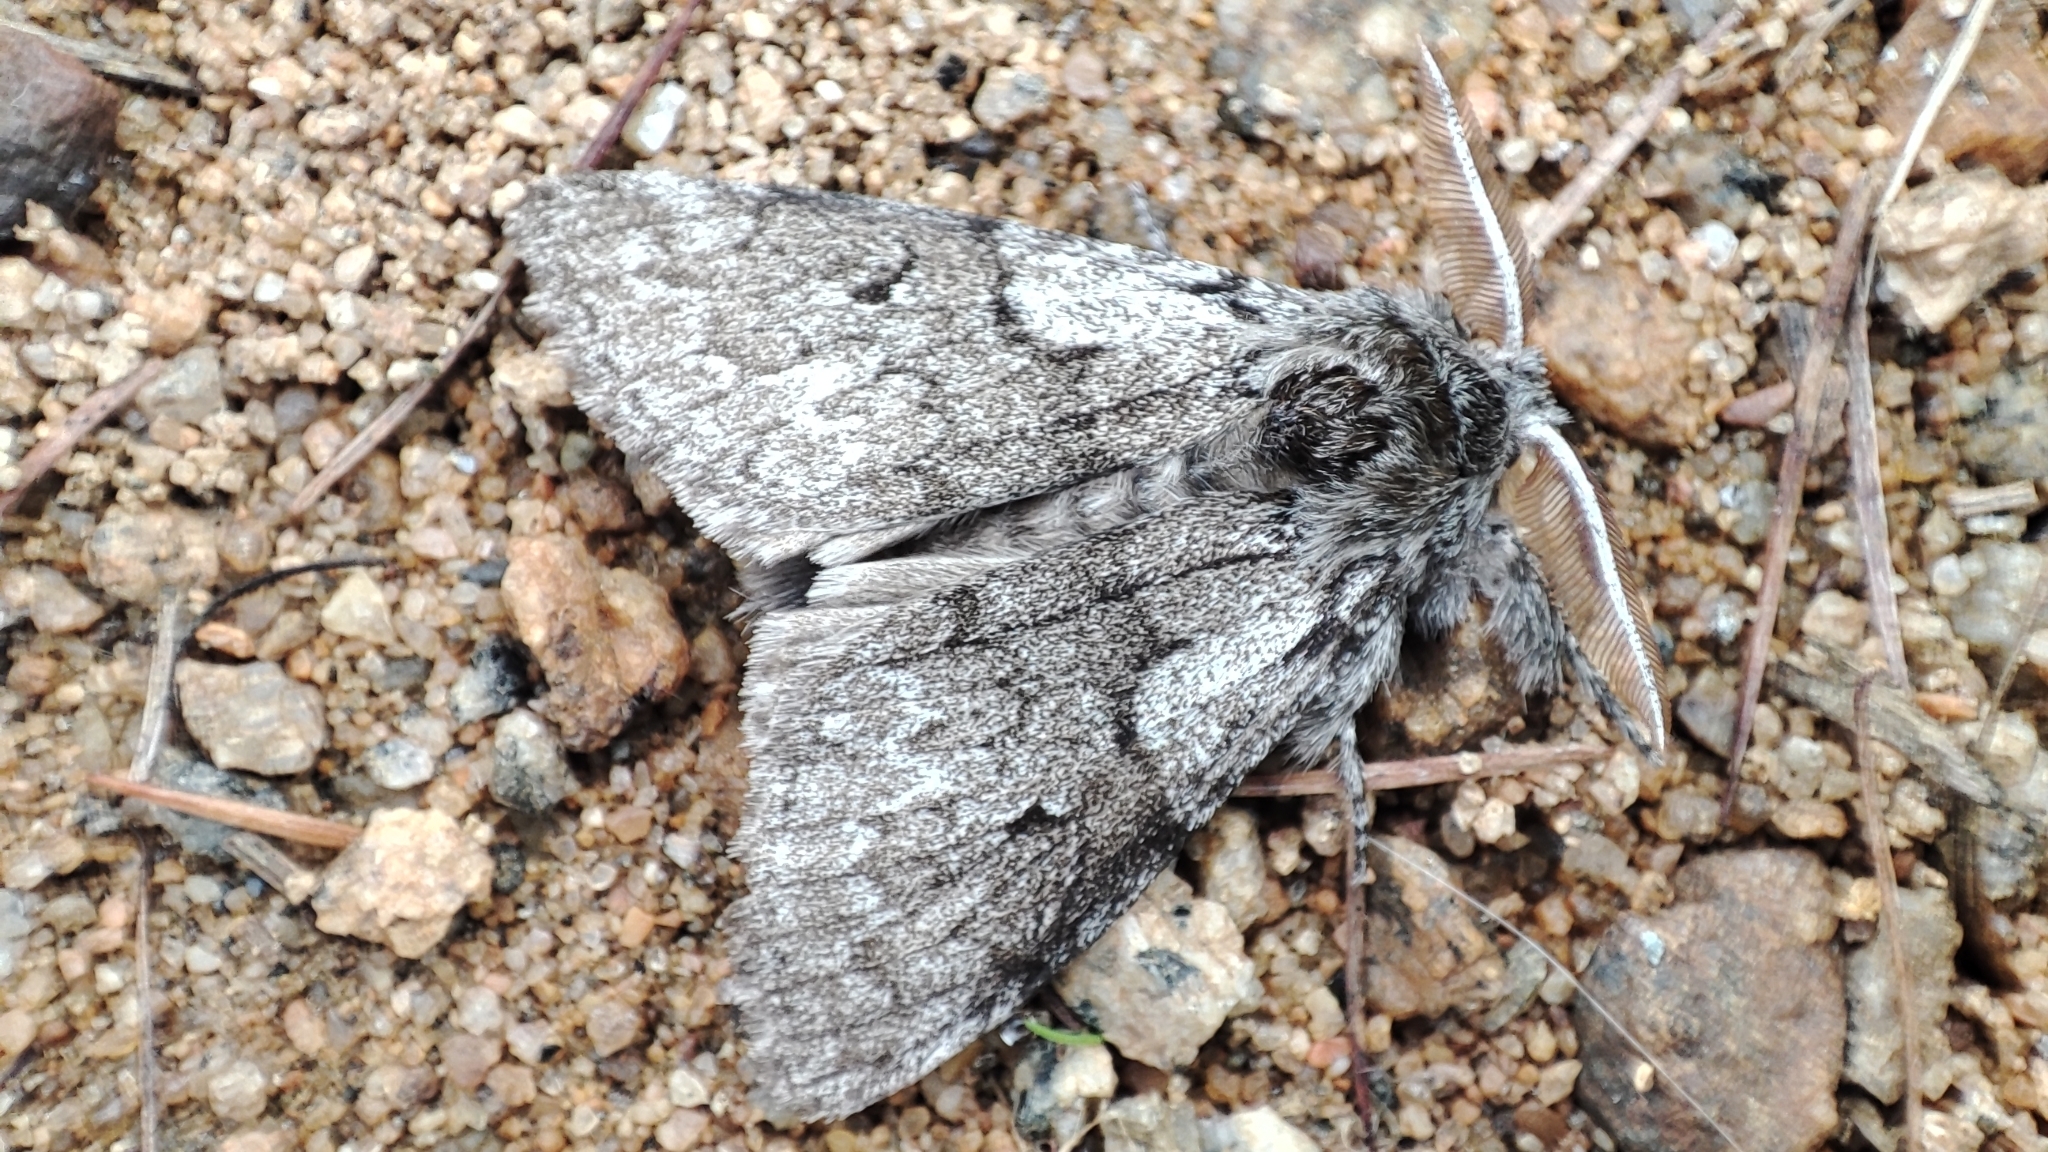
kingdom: Animalia
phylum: Arthropoda
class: Insecta
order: Lepidoptera
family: Erebidae
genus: Calliteara
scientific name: Calliteara abietis
